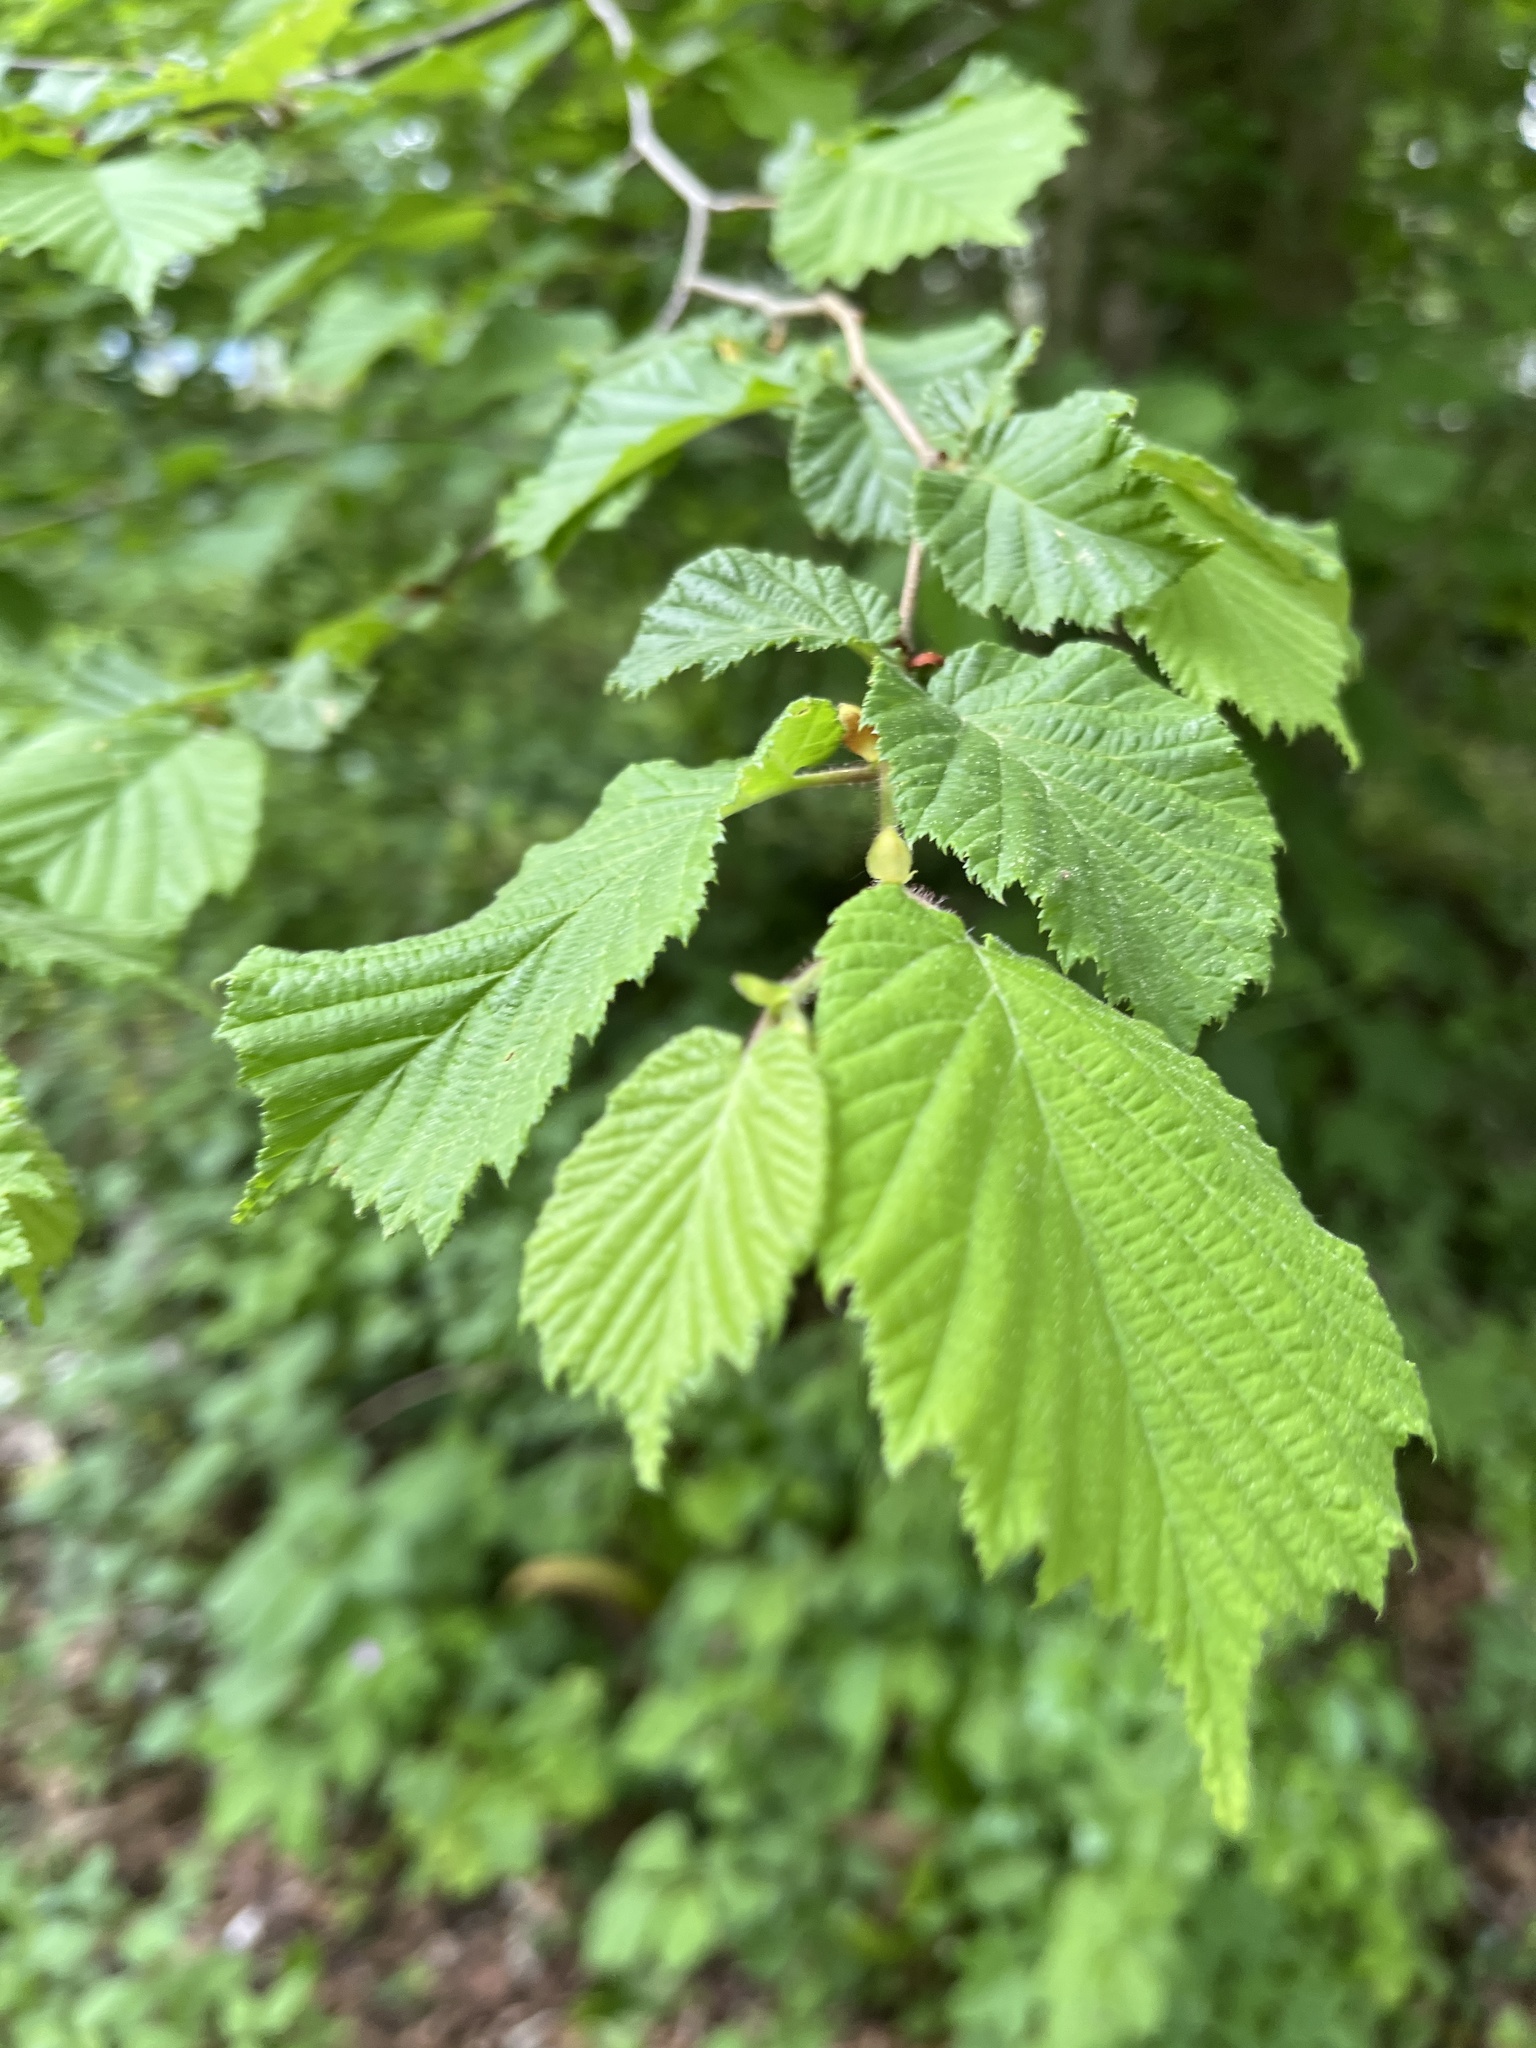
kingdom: Plantae
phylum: Tracheophyta
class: Magnoliopsida
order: Fagales
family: Betulaceae
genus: Corylus
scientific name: Corylus avellana
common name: European hazel
